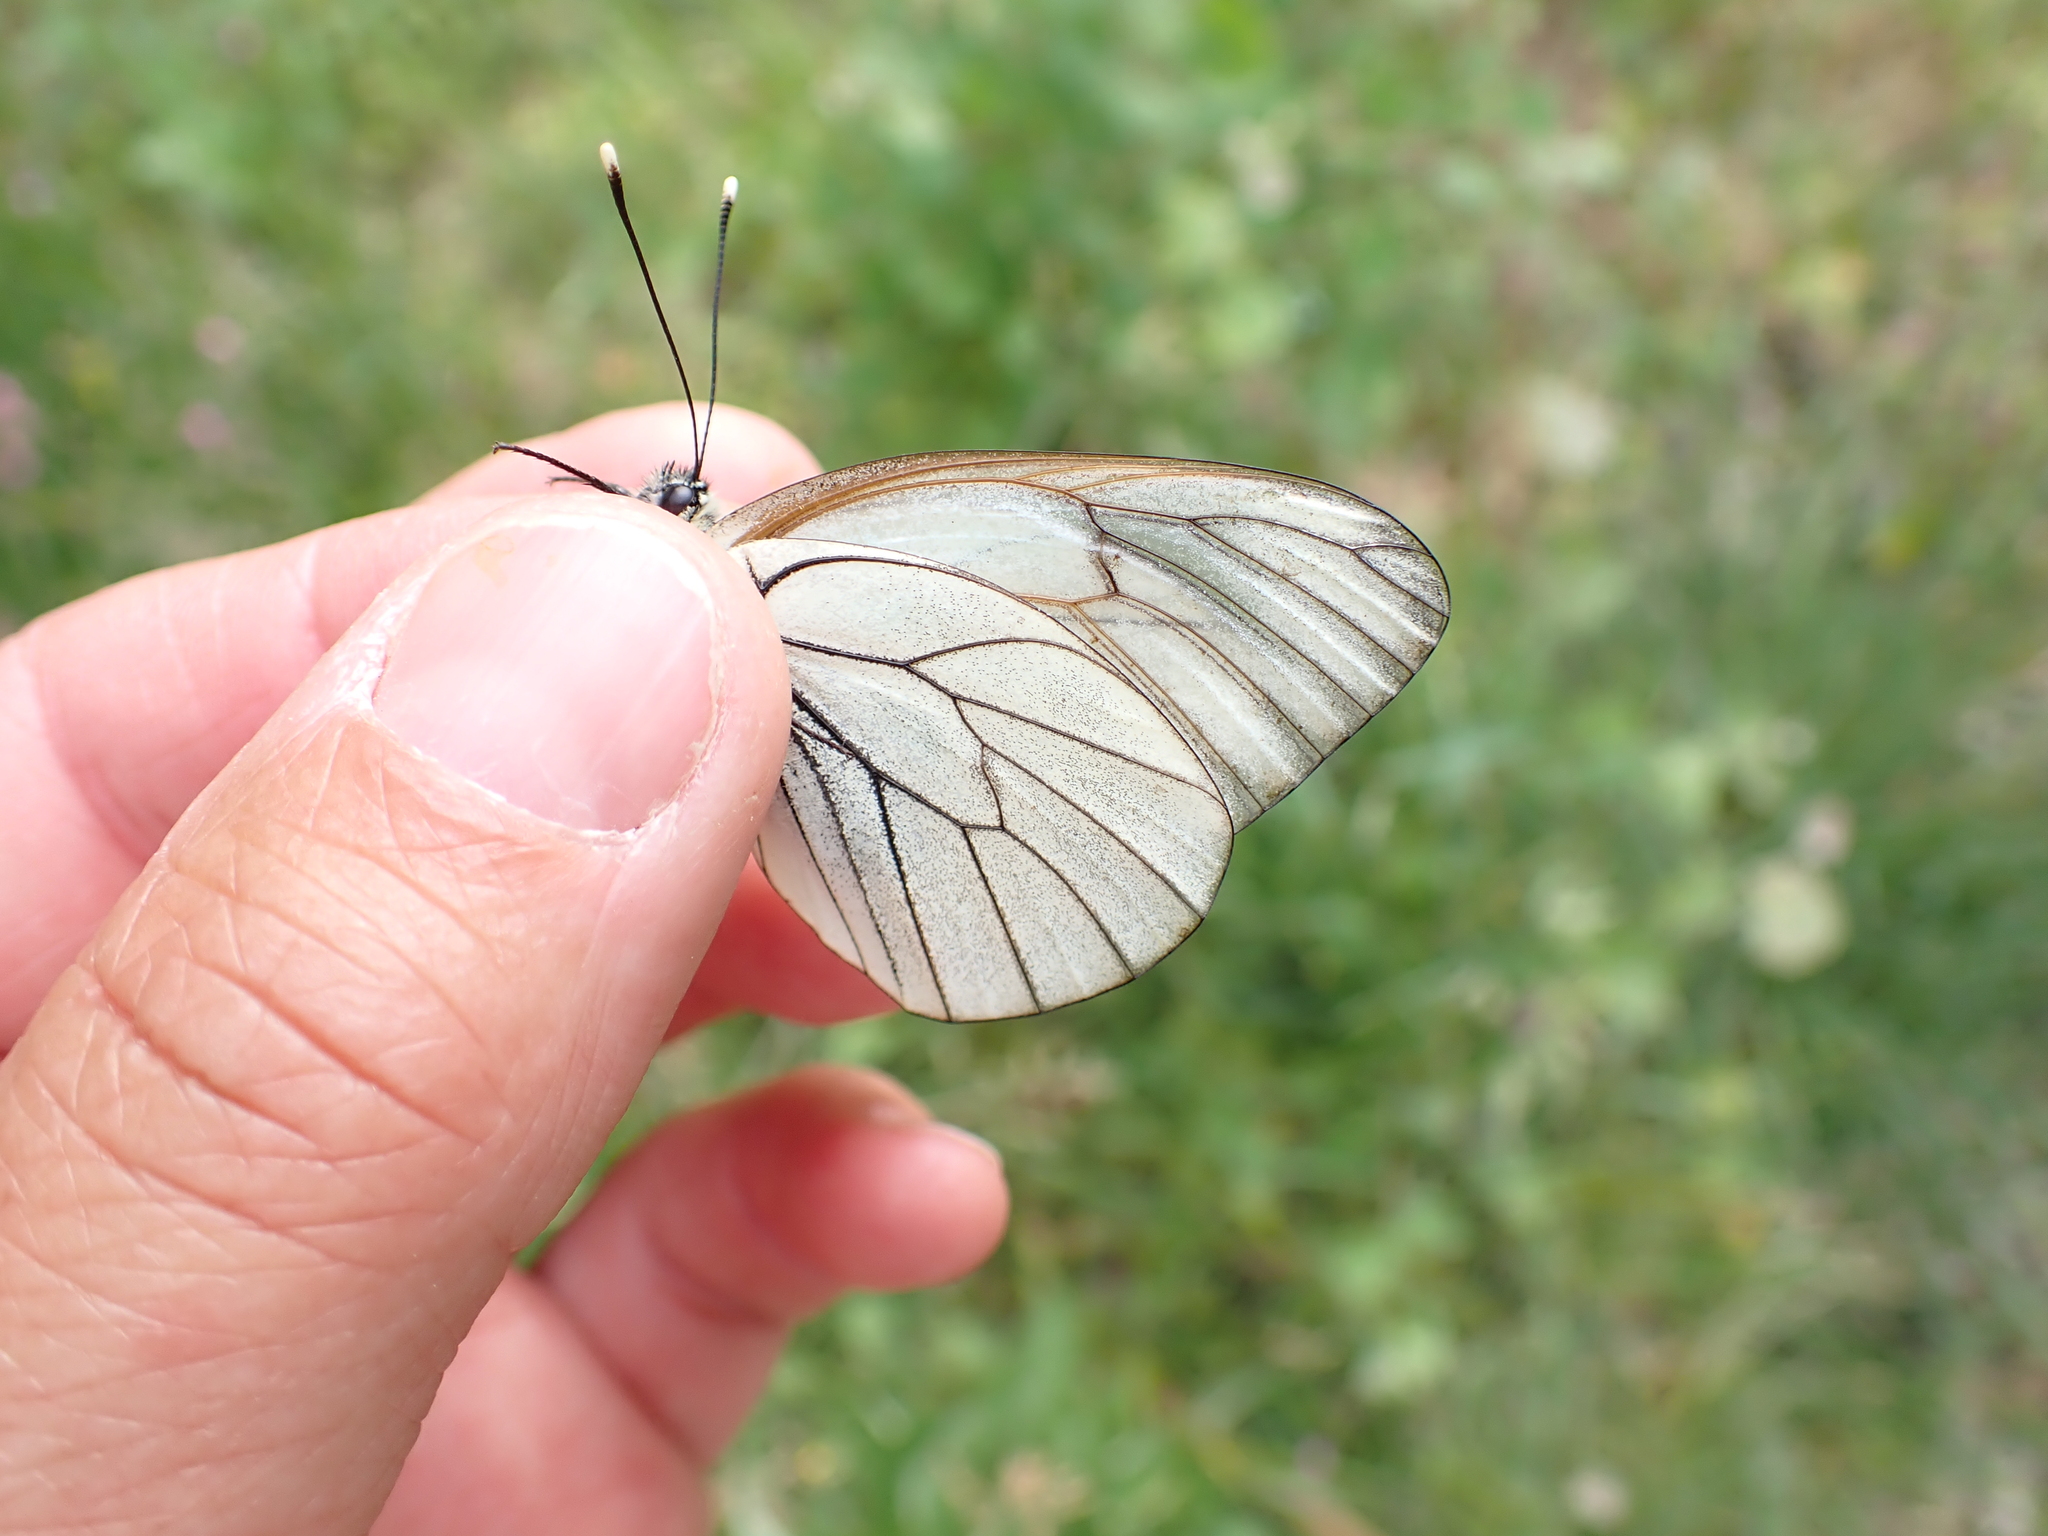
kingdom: Animalia
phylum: Arthropoda
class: Insecta
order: Lepidoptera
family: Pieridae
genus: Aporia
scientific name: Aporia crataegi
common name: Black-veined white
